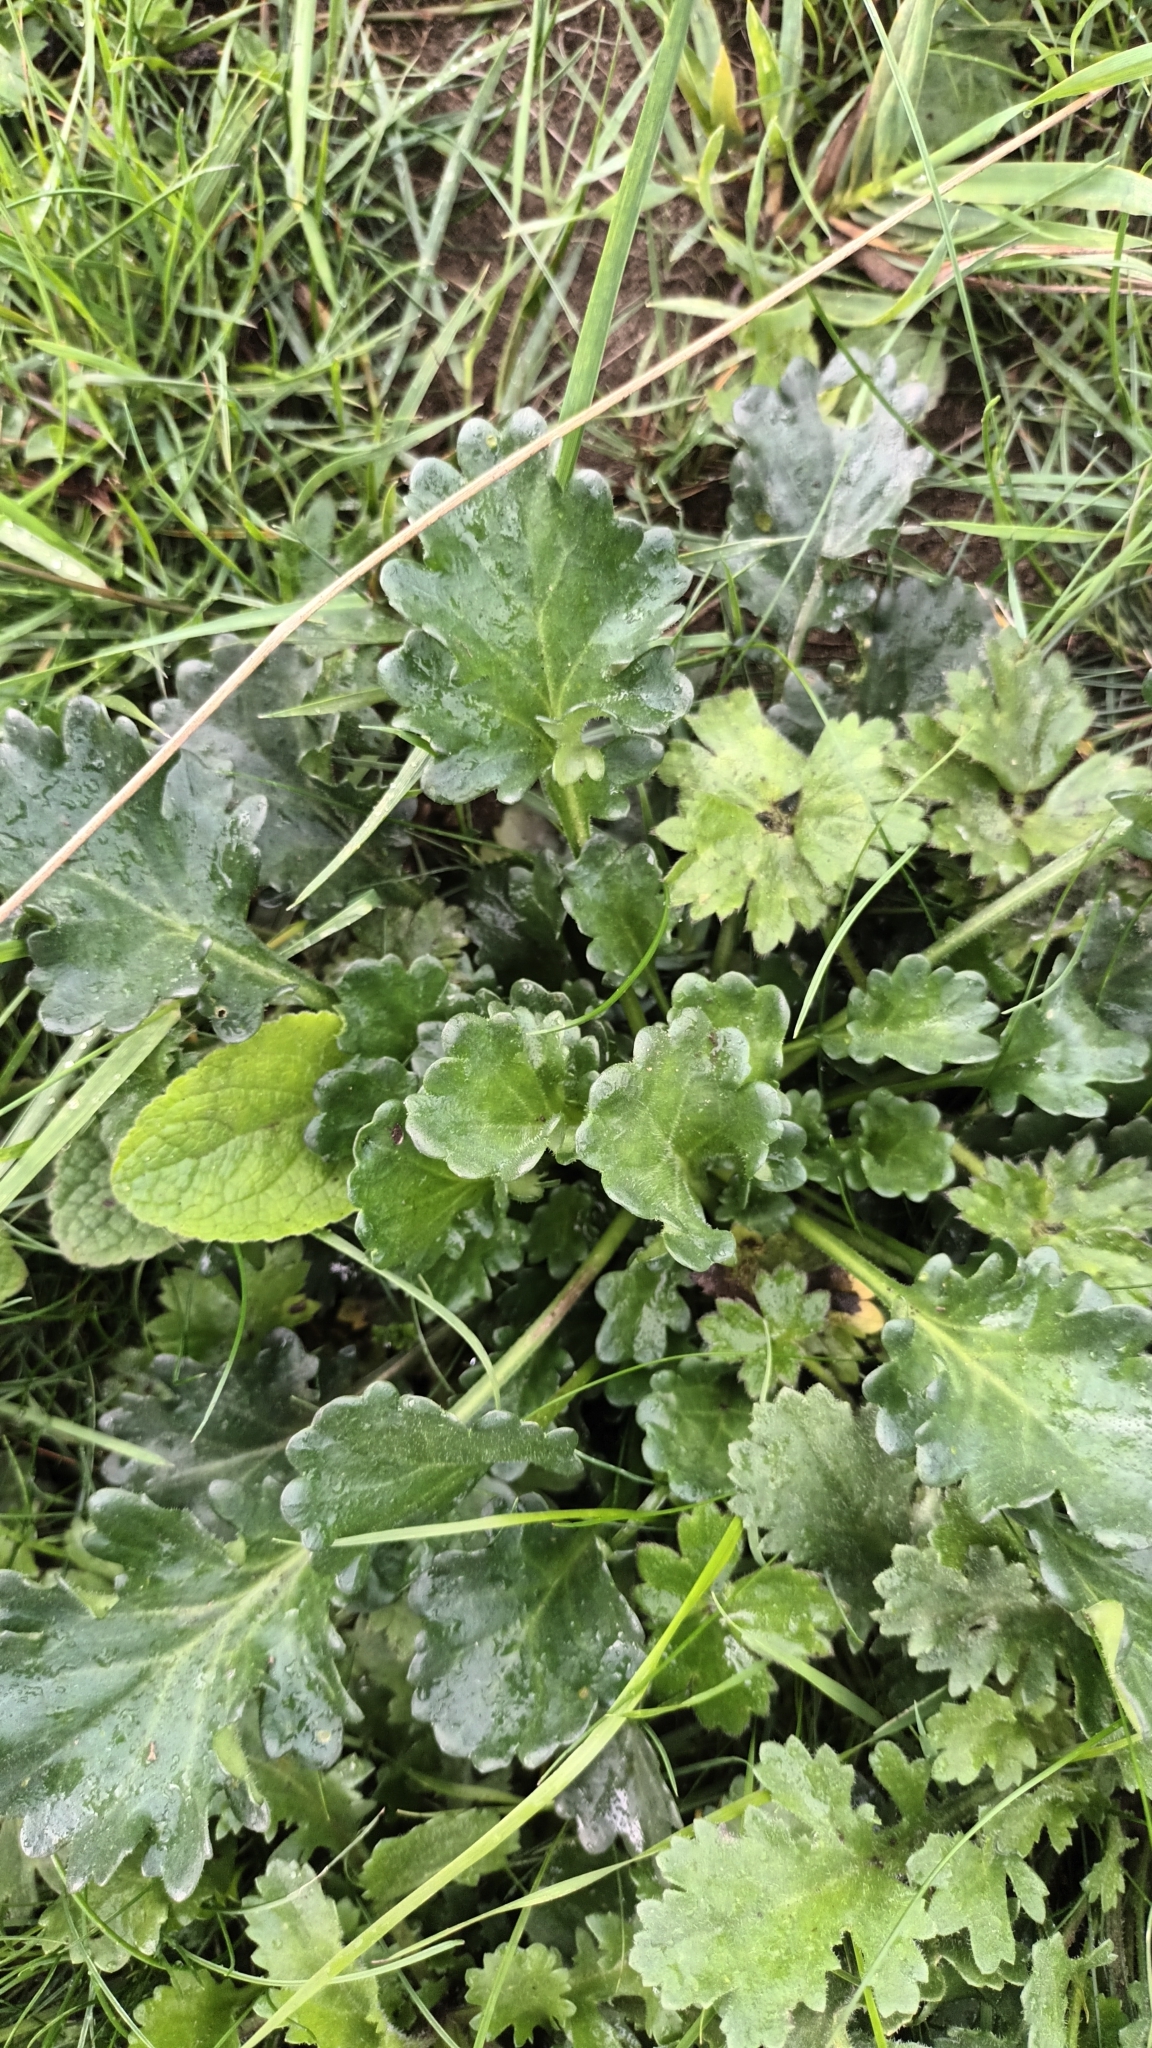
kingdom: Plantae
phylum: Tracheophyta
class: Magnoliopsida
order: Asterales
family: Asteraceae
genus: Leucanthemum
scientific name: Leucanthemum vulgare
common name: Oxeye daisy
